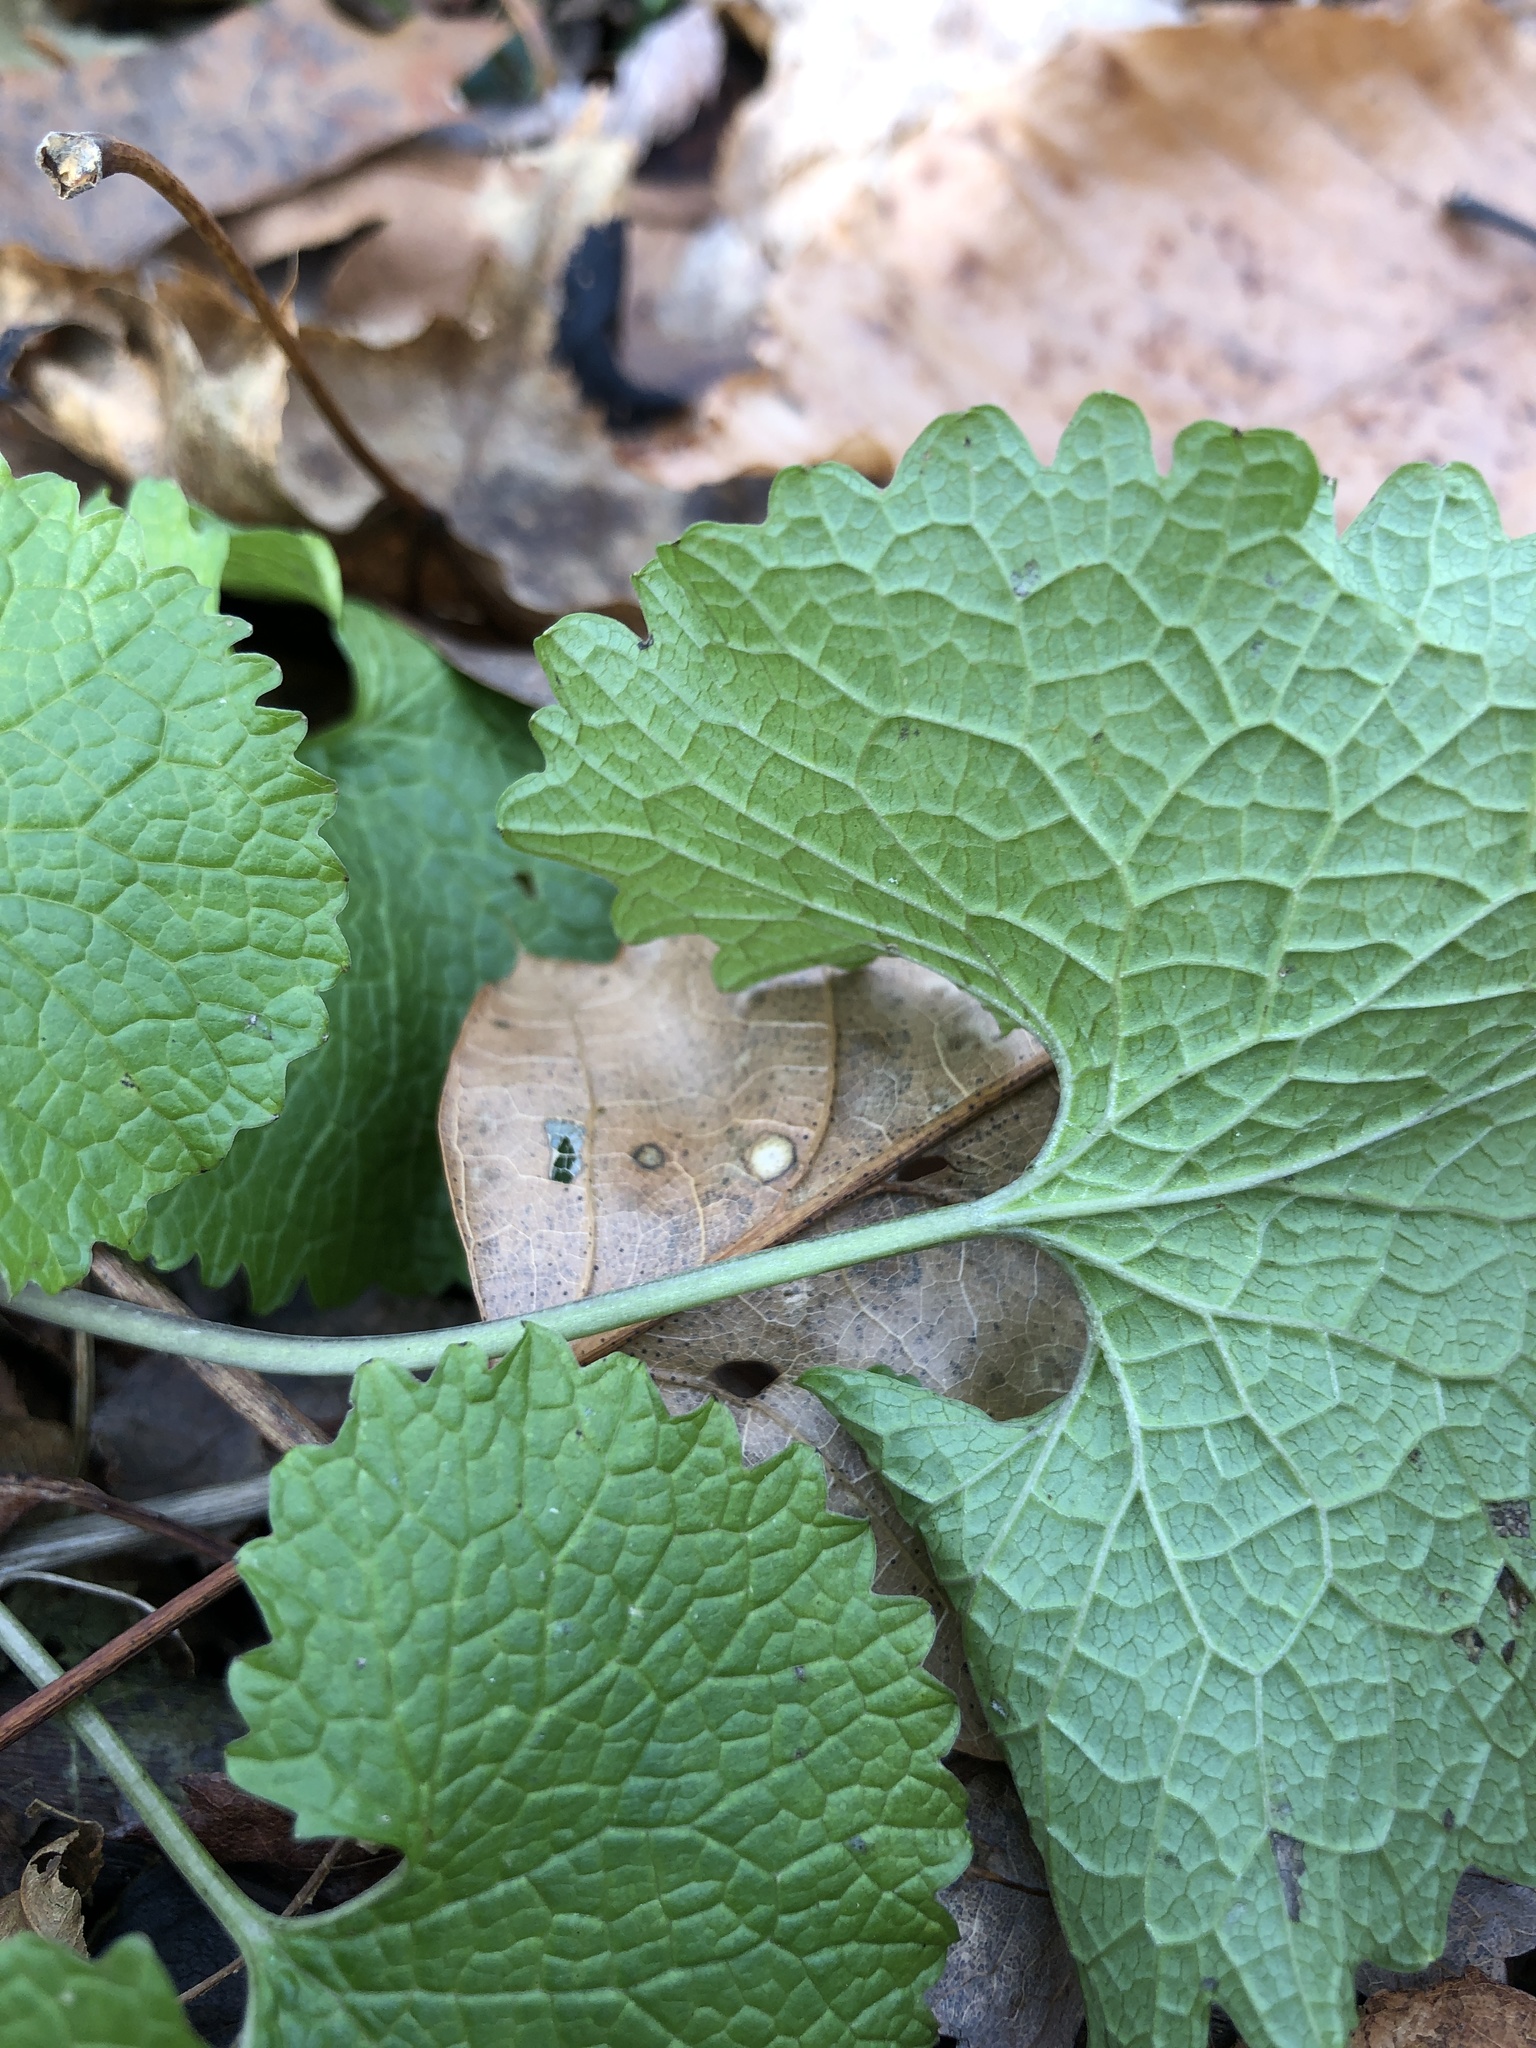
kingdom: Plantae
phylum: Tracheophyta
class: Magnoliopsida
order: Brassicales
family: Brassicaceae
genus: Alliaria
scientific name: Alliaria petiolata
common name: Garlic mustard
